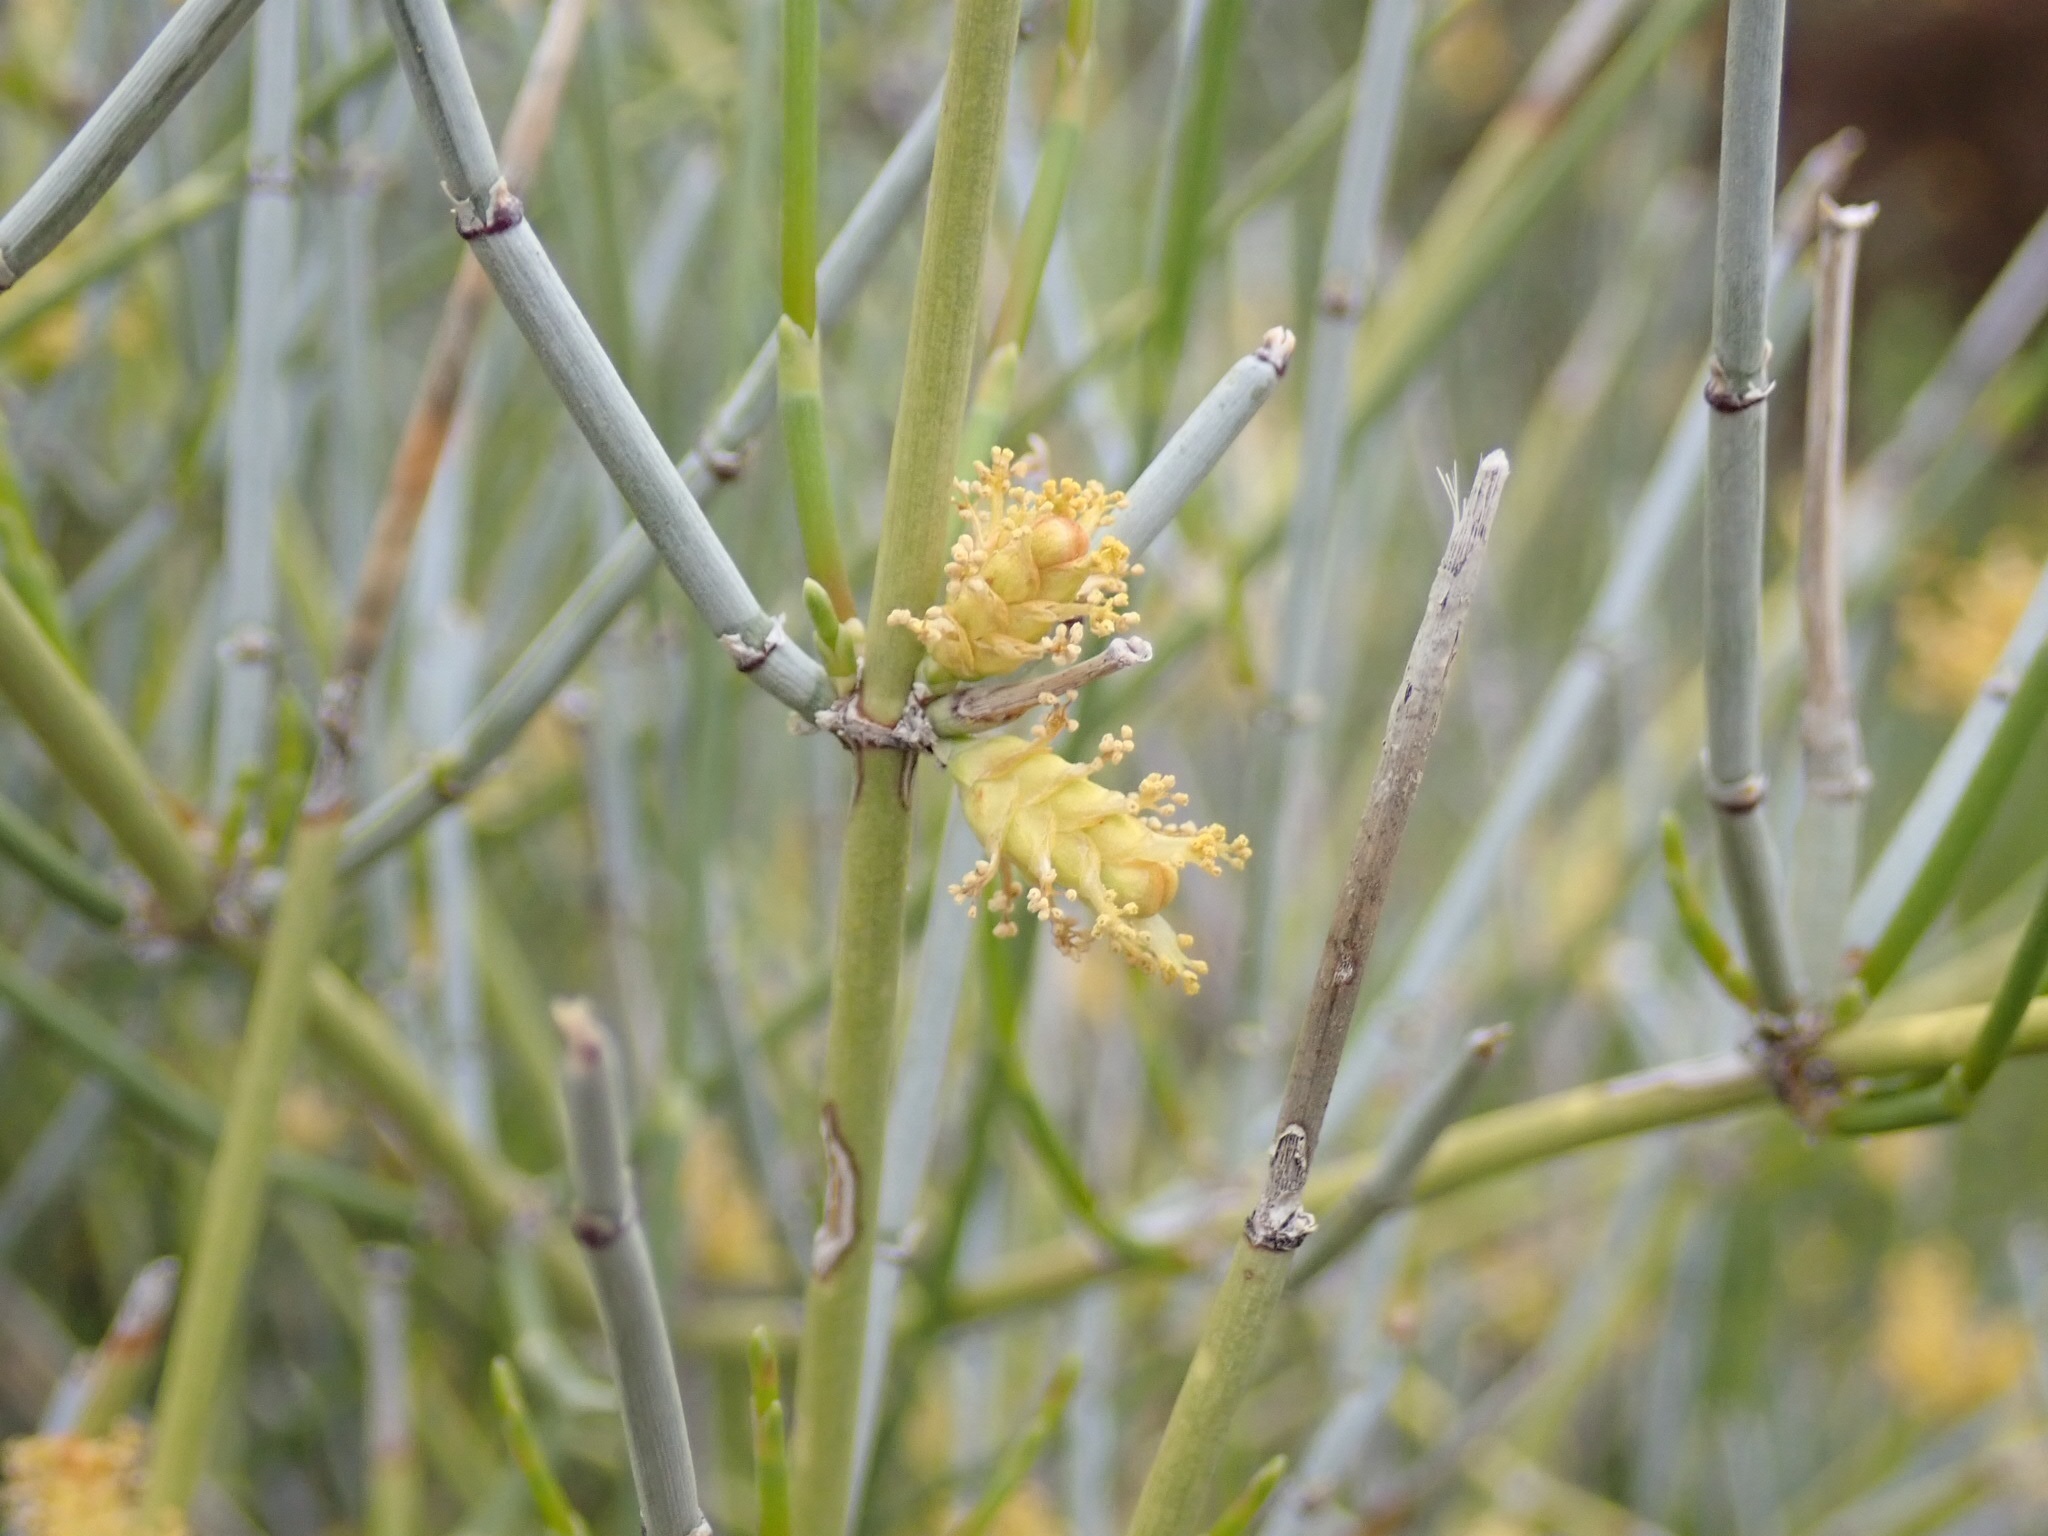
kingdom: Plantae
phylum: Tracheophyta
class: Gnetopsida
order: Ephedrales
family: Ephedraceae
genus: Ephedra
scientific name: Ephedra
